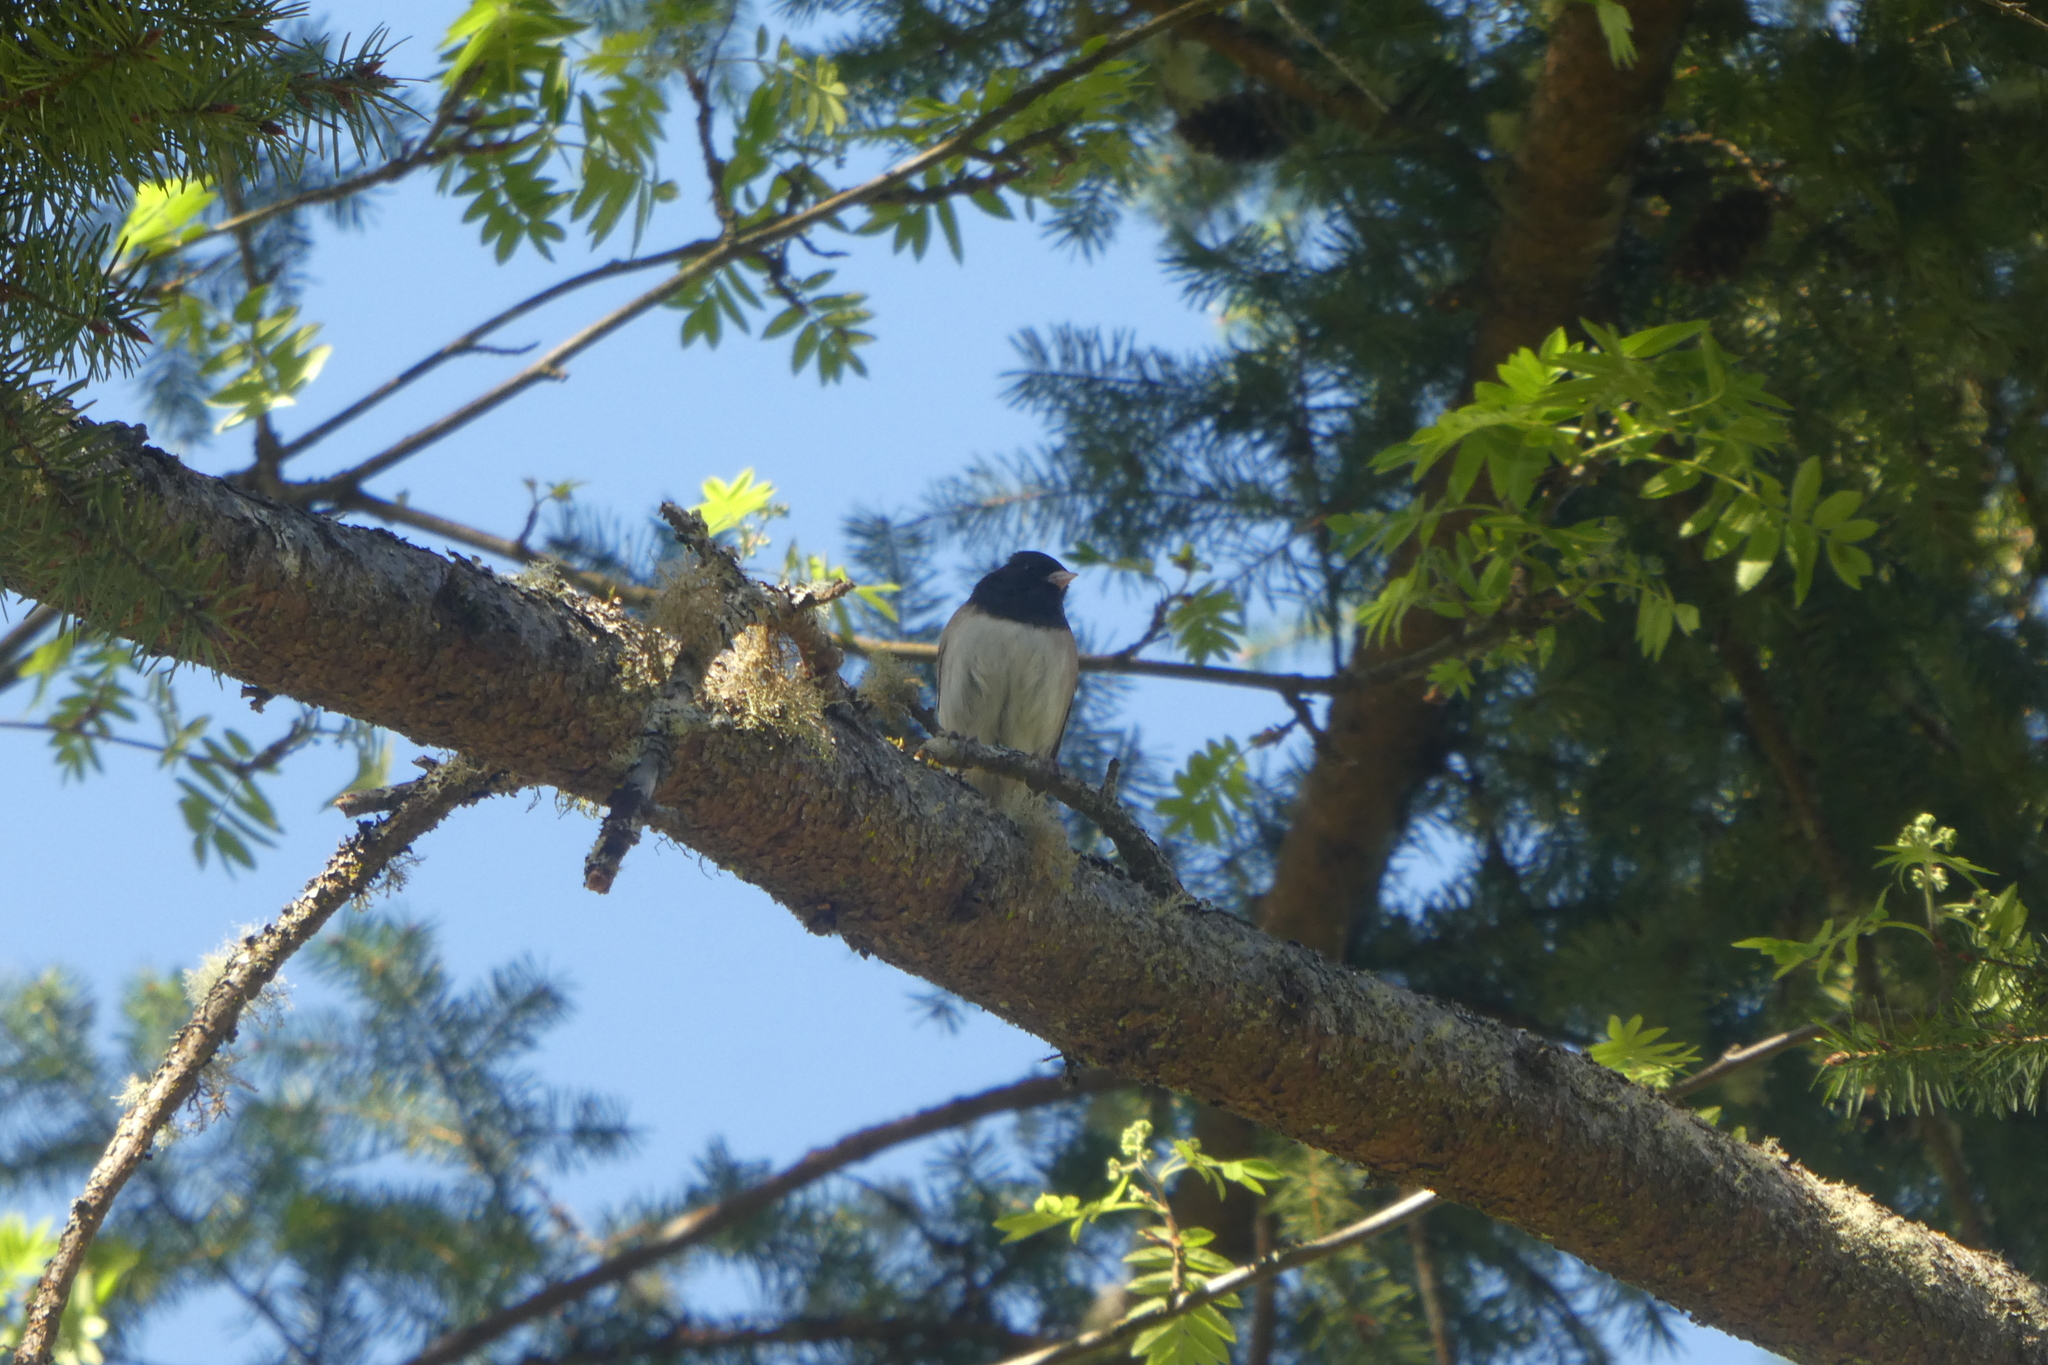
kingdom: Animalia
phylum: Chordata
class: Aves
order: Passeriformes
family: Passerellidae
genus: Junco
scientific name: Junco hyemalis
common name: Dark-eyed junco
